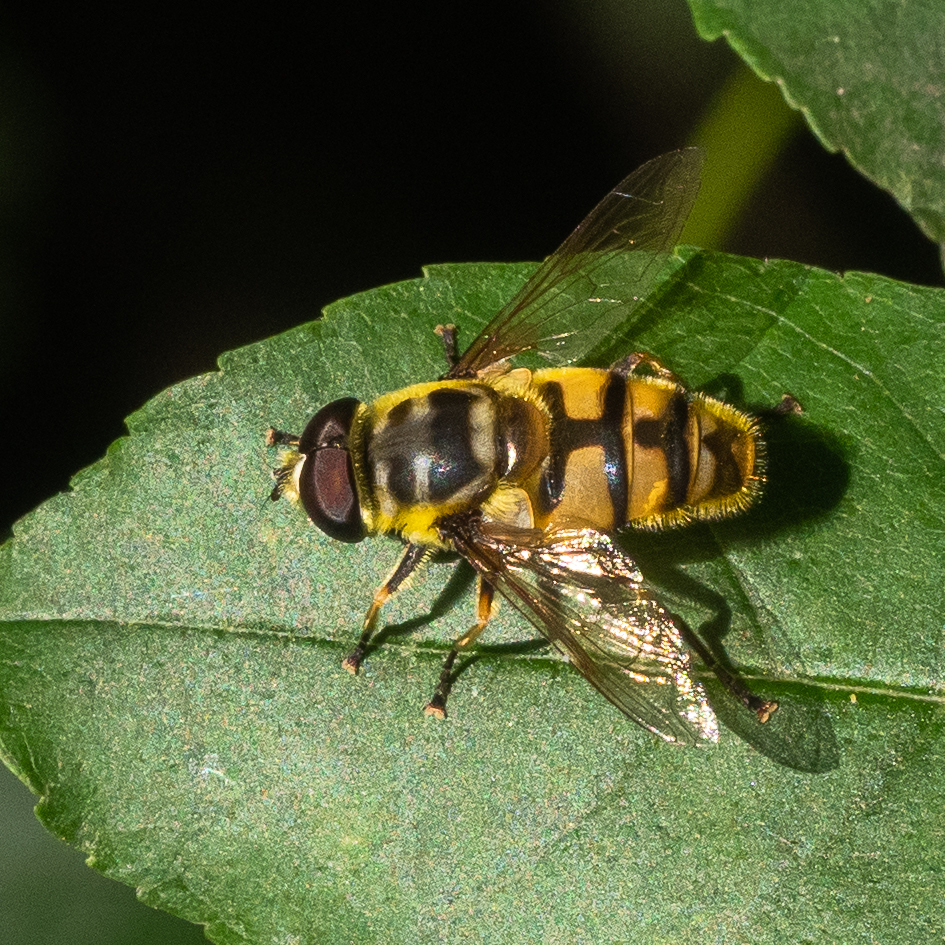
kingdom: Animalia
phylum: Arthropoda
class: Insecta
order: Diptera
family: Syrphidae
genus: Myathropa
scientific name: Myathropa florea
